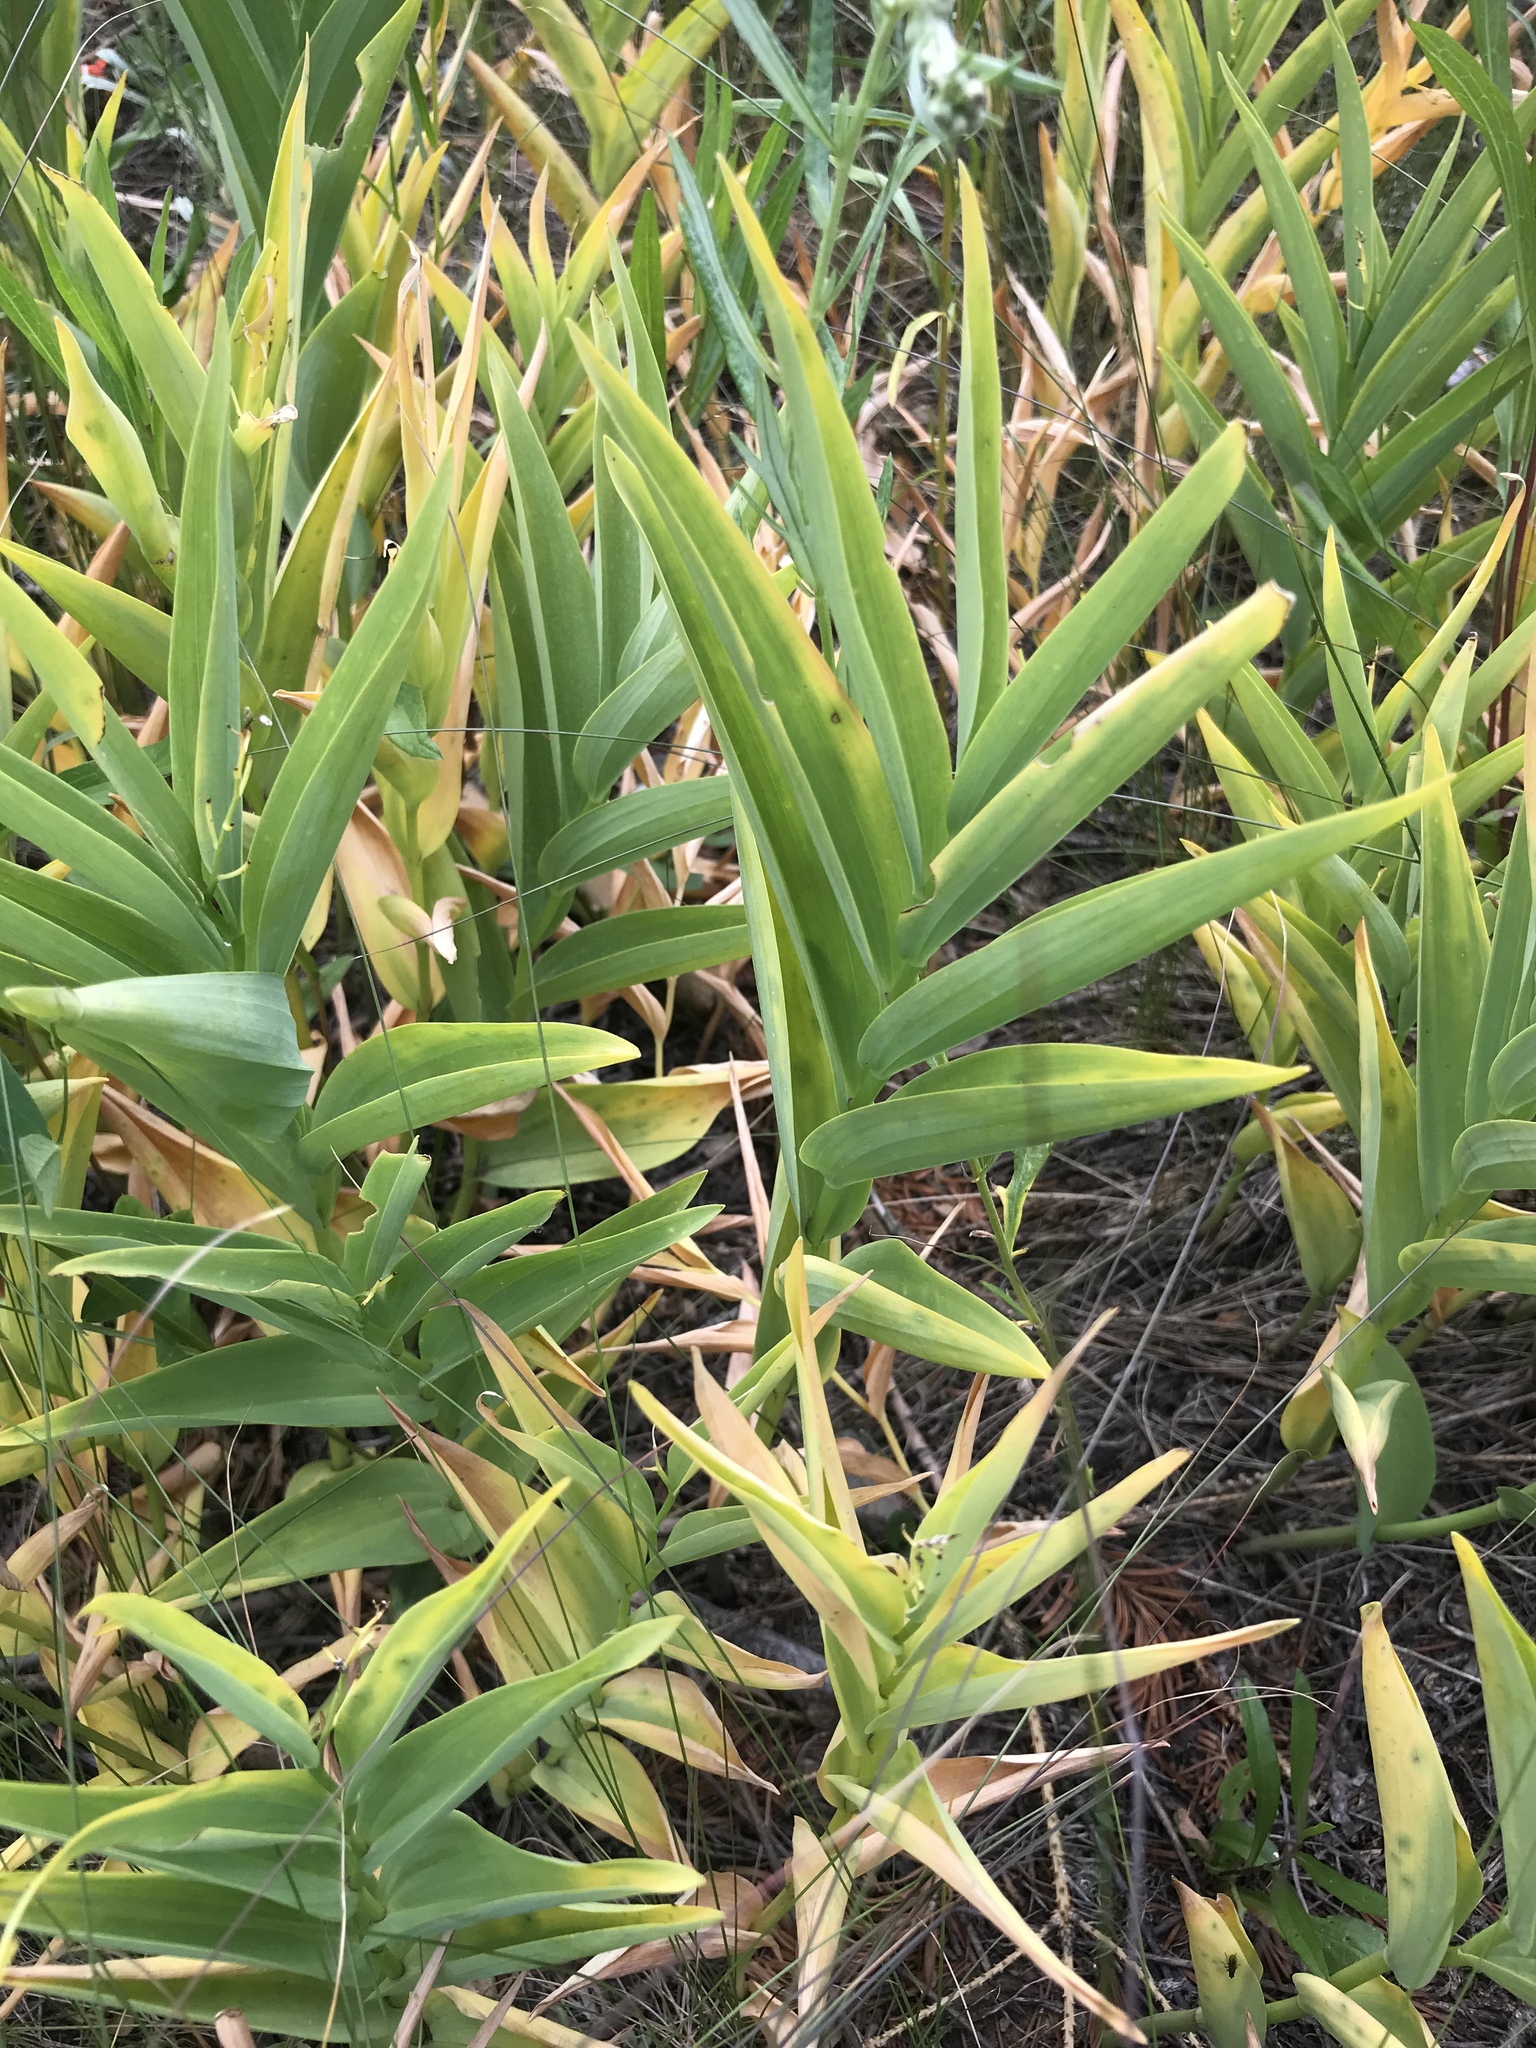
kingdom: Plantae
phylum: Tracheophyta
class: Liliopsida
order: Asparagales
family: Asparagaceae
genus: Maianthemum
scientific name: Maianthemum stellatum
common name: Little false solomon's seal
